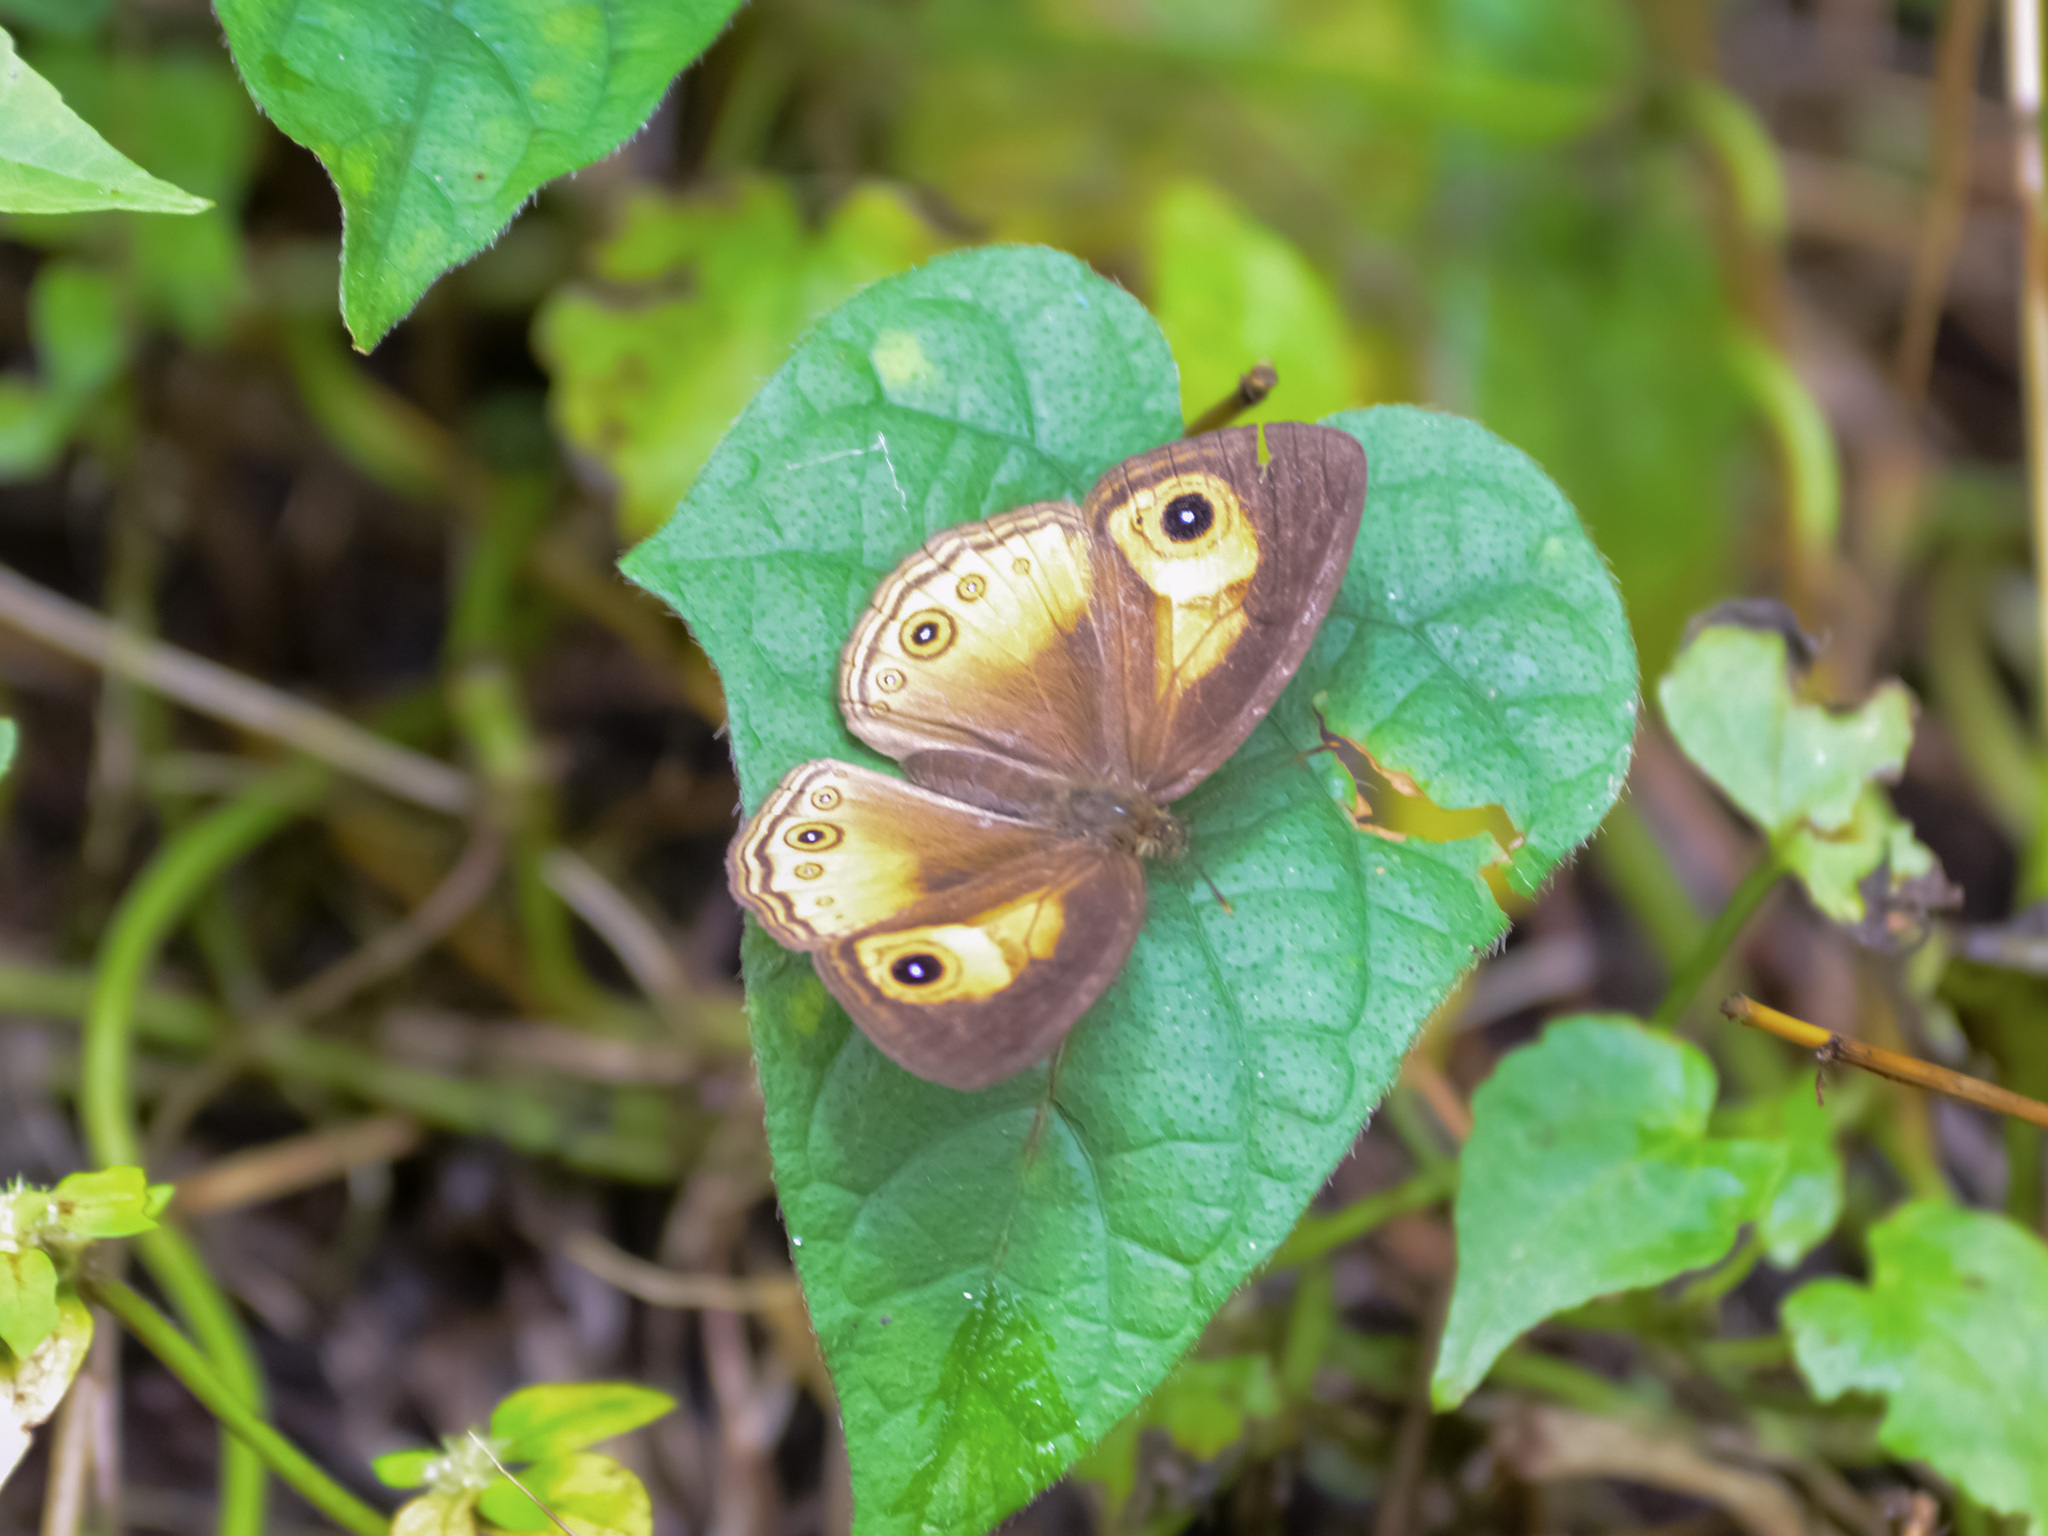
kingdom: Animalia
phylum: Arthropoda
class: Insecta
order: Lepidoptera
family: Nymphalidae
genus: Mycalesis
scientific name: Mycalesis ita
